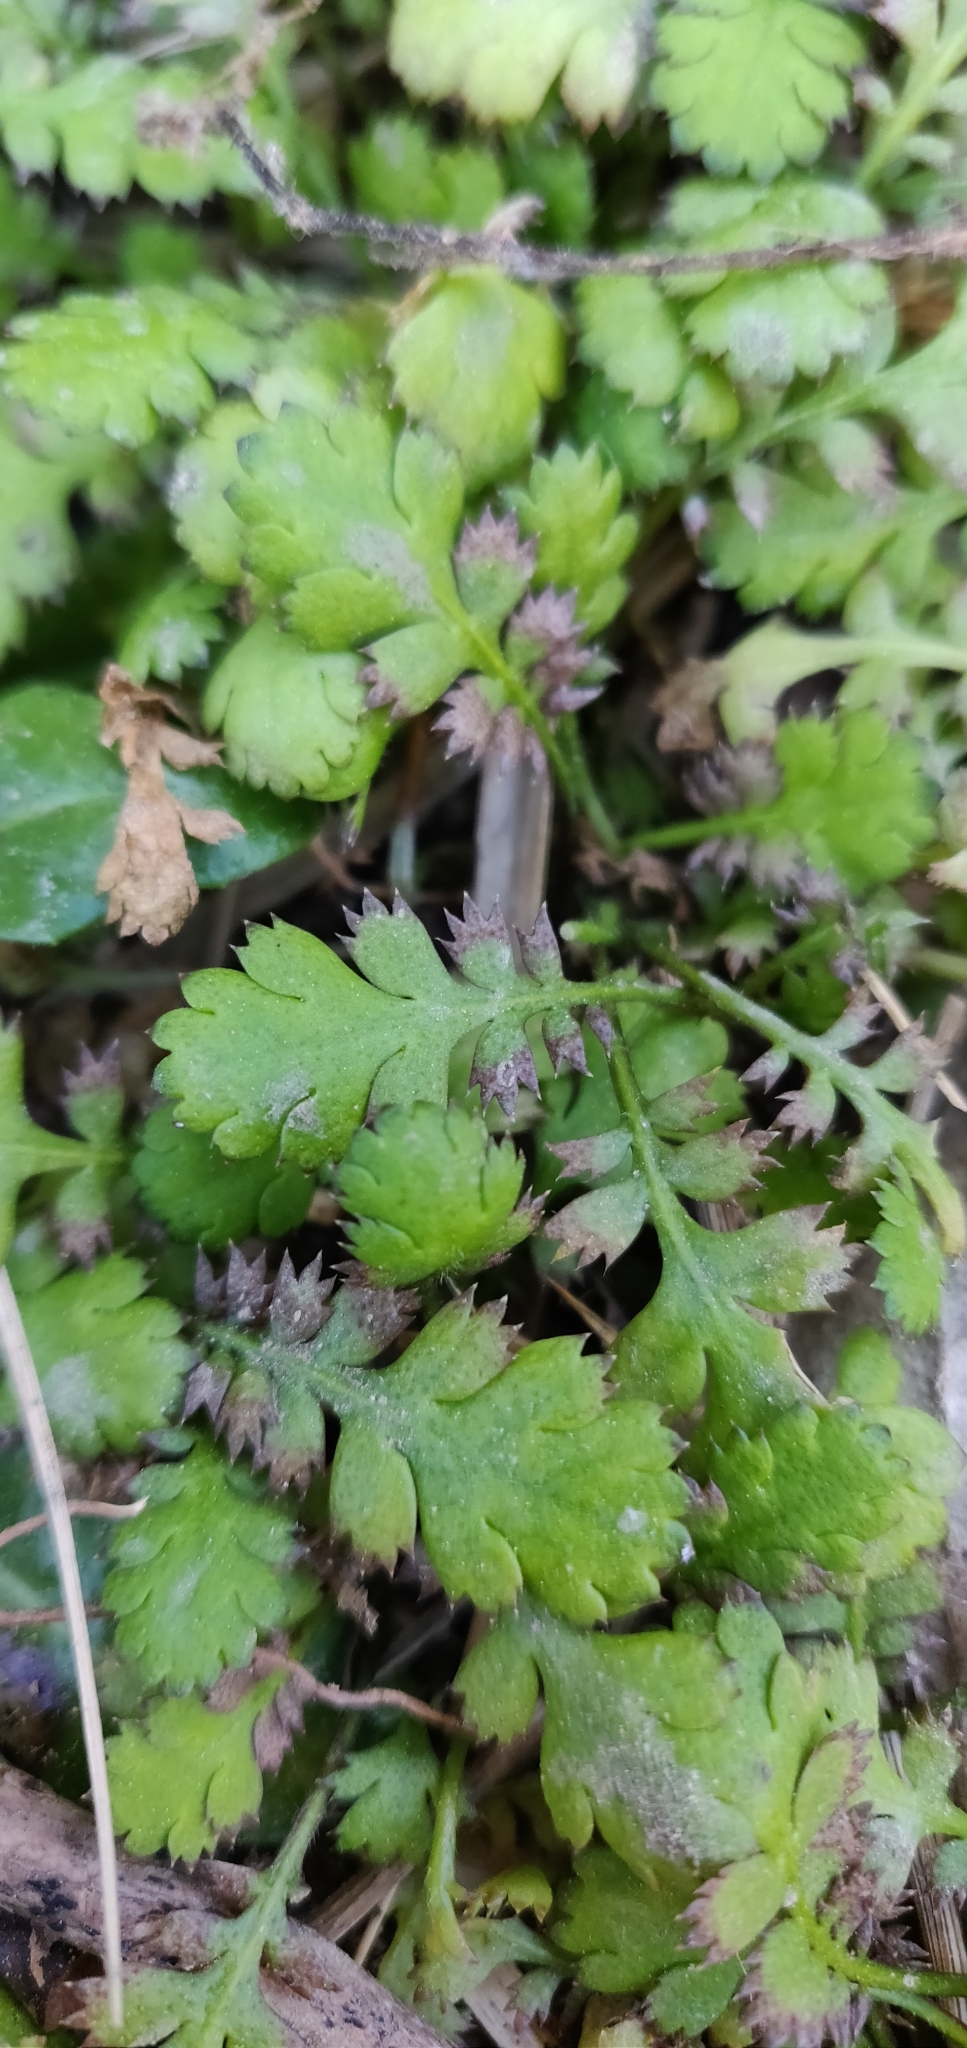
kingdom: Plantae
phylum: Tracheophyta
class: Magnoliopsida
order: Asterales
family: Asteraceae
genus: Leptinella
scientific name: Leptinella squalida
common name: New zealand brass-buttons
